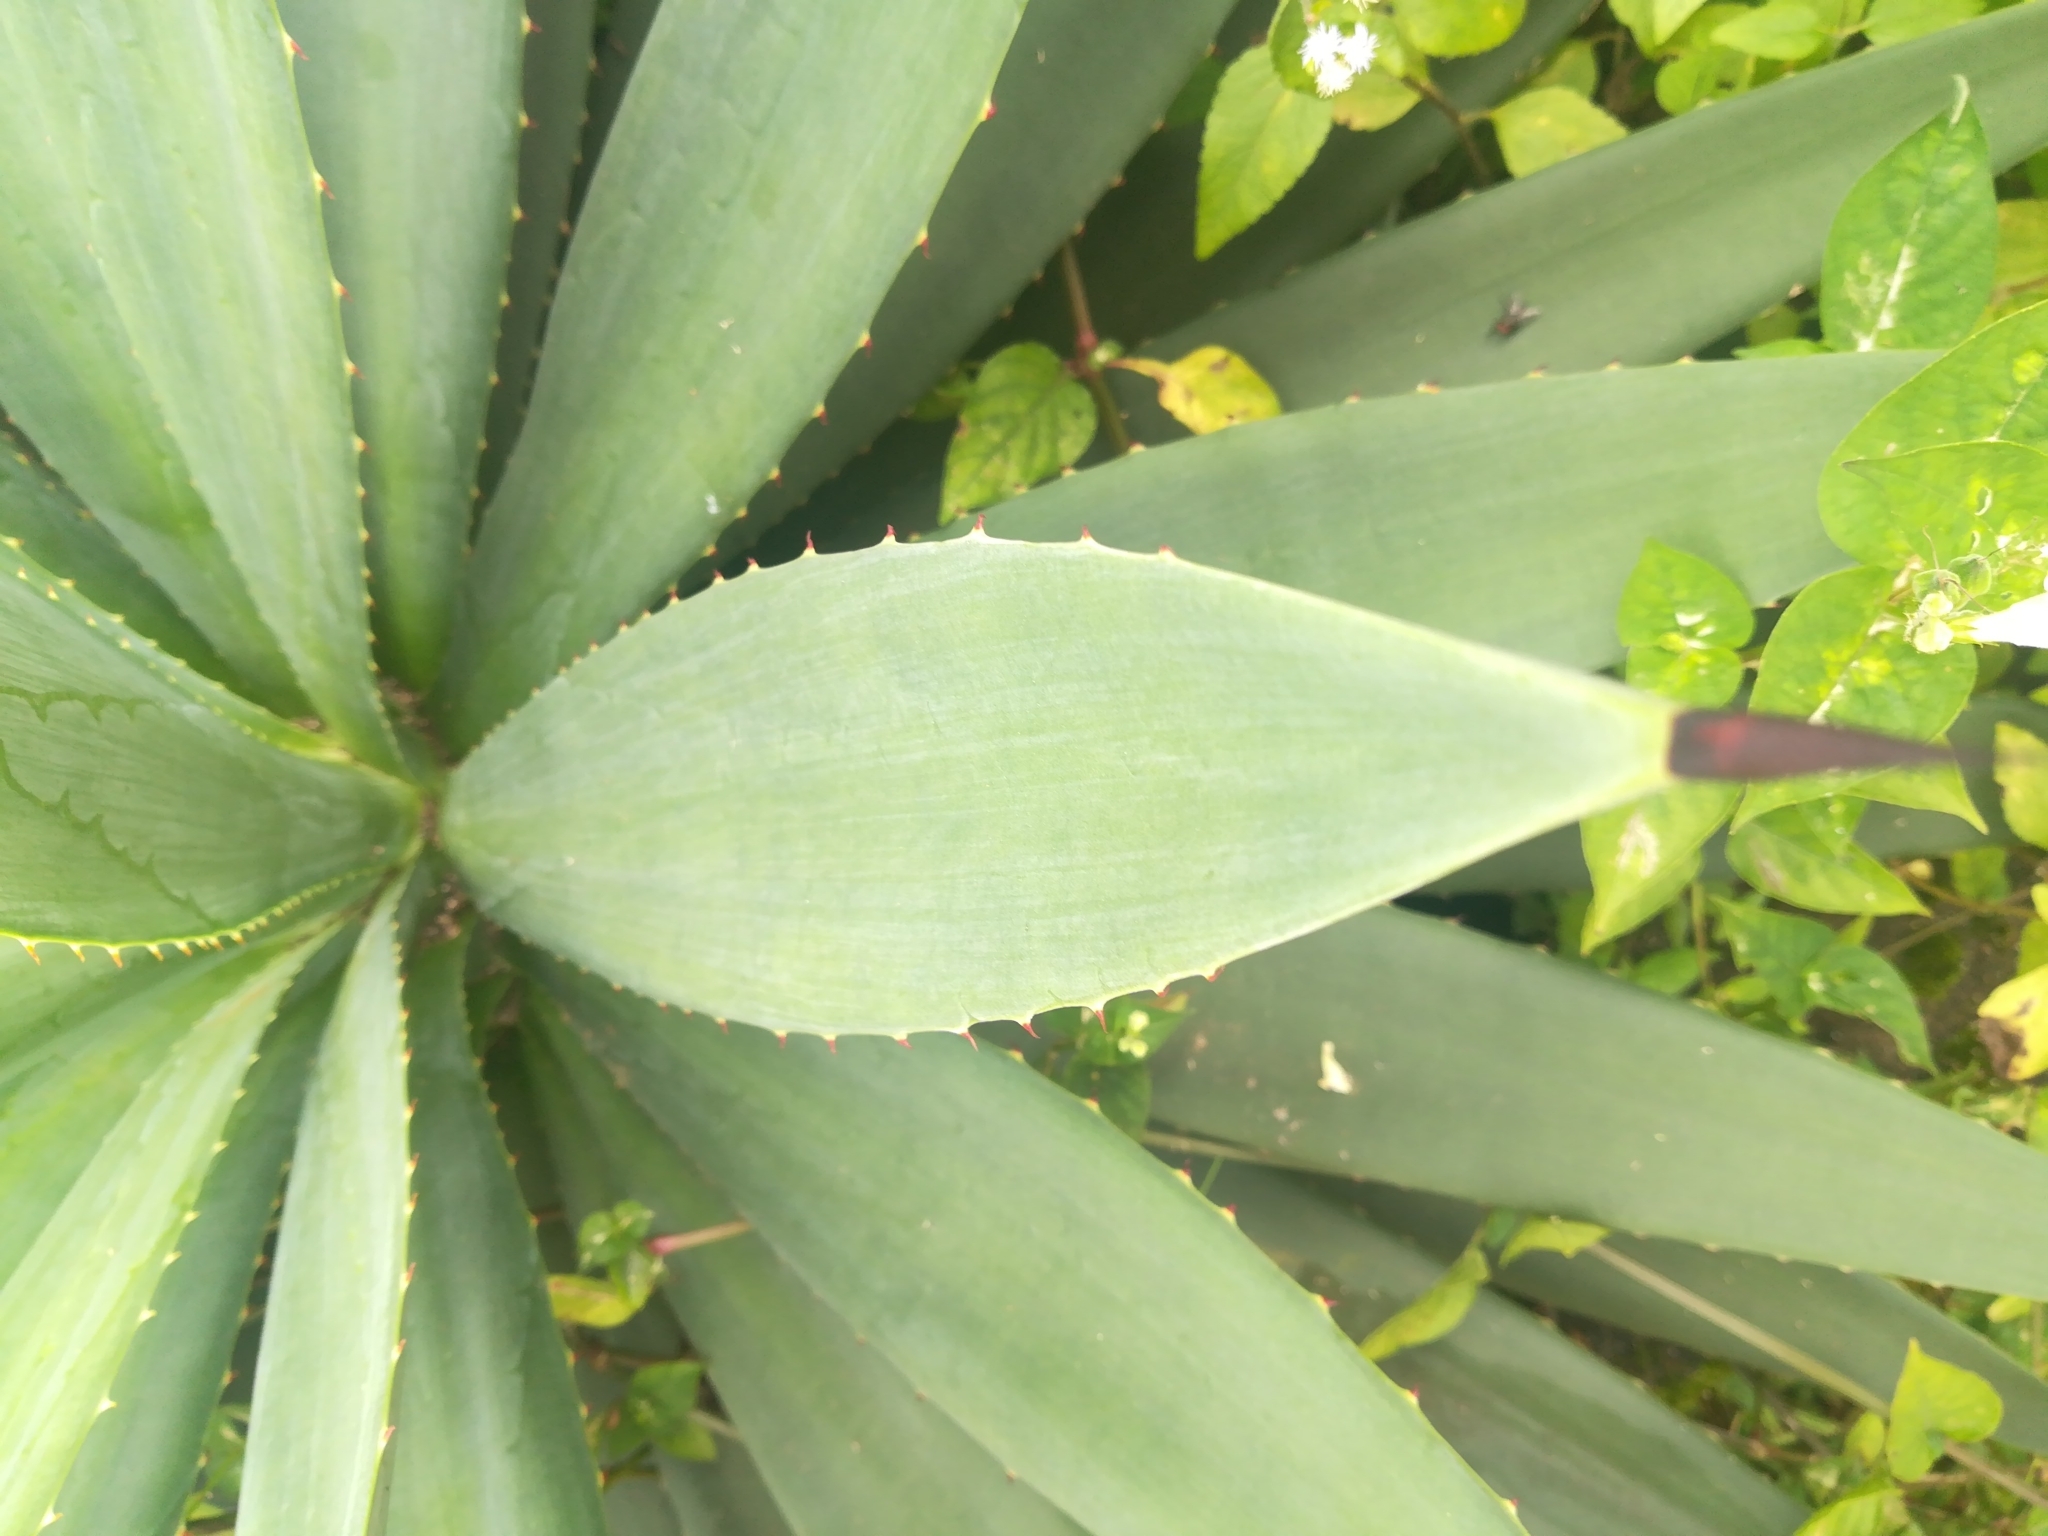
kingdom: Plantae
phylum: Tracheophyta
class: Liliopsida
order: Asparagales
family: Asparagaceae
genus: Agave
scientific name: Agave angustifolia
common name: Mescal agave
